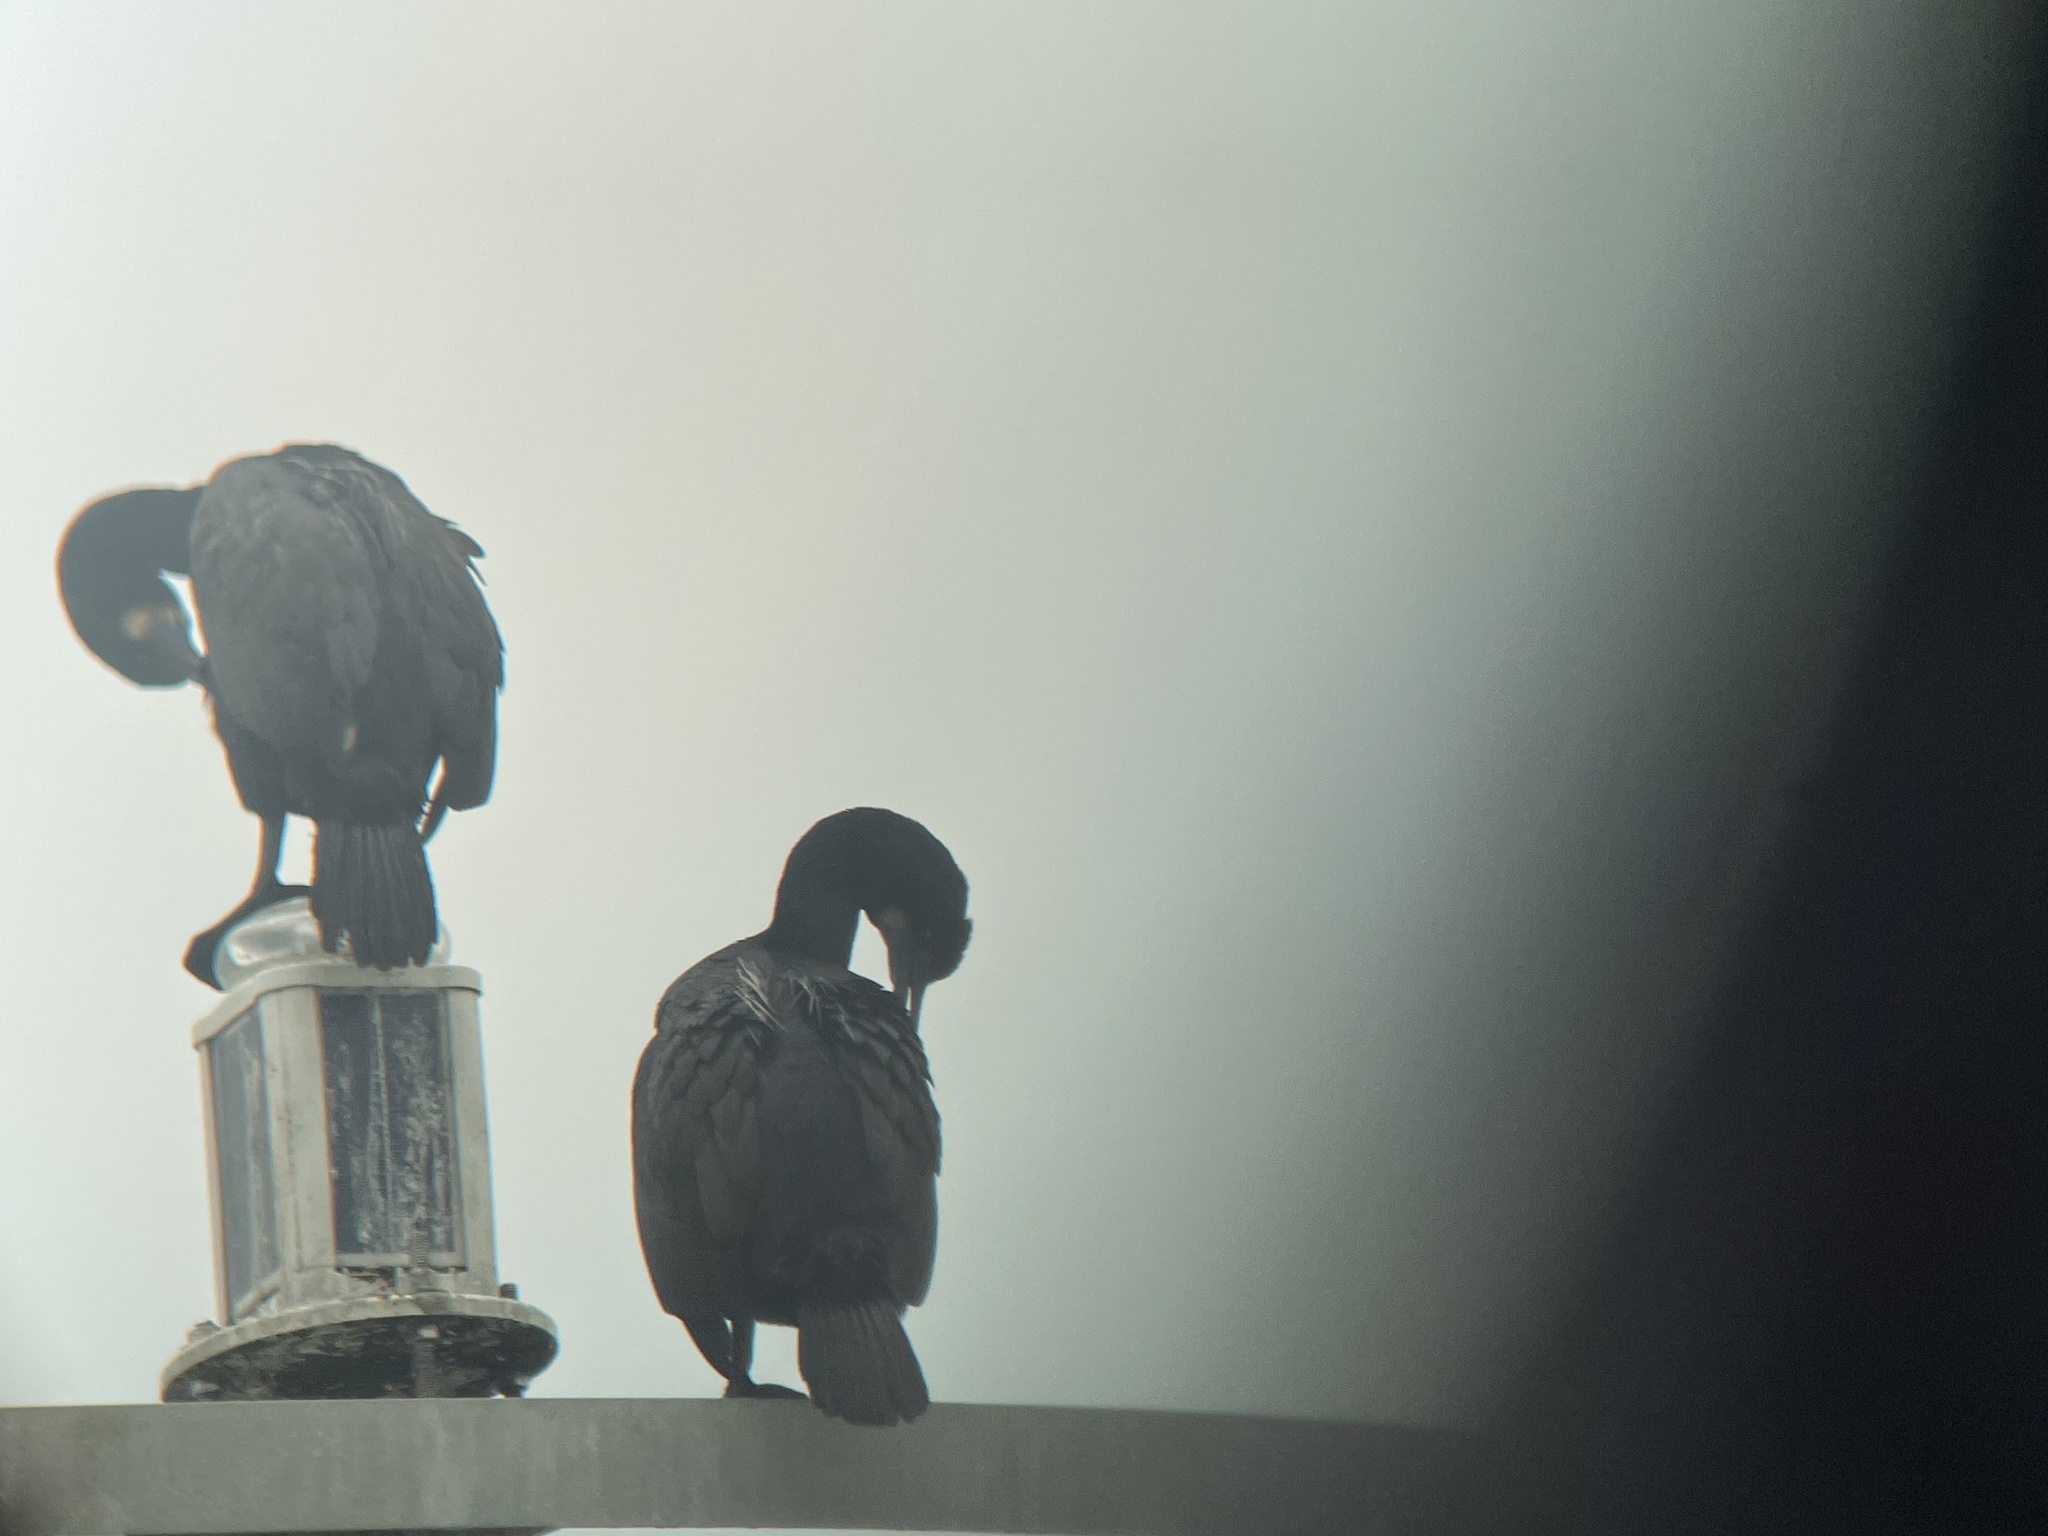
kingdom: Animalia
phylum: Chordata
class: Aves
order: Suliformes
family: Phalacrocoracidae
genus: Urile
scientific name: Urile penicillatus
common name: Brandt's cormorant
